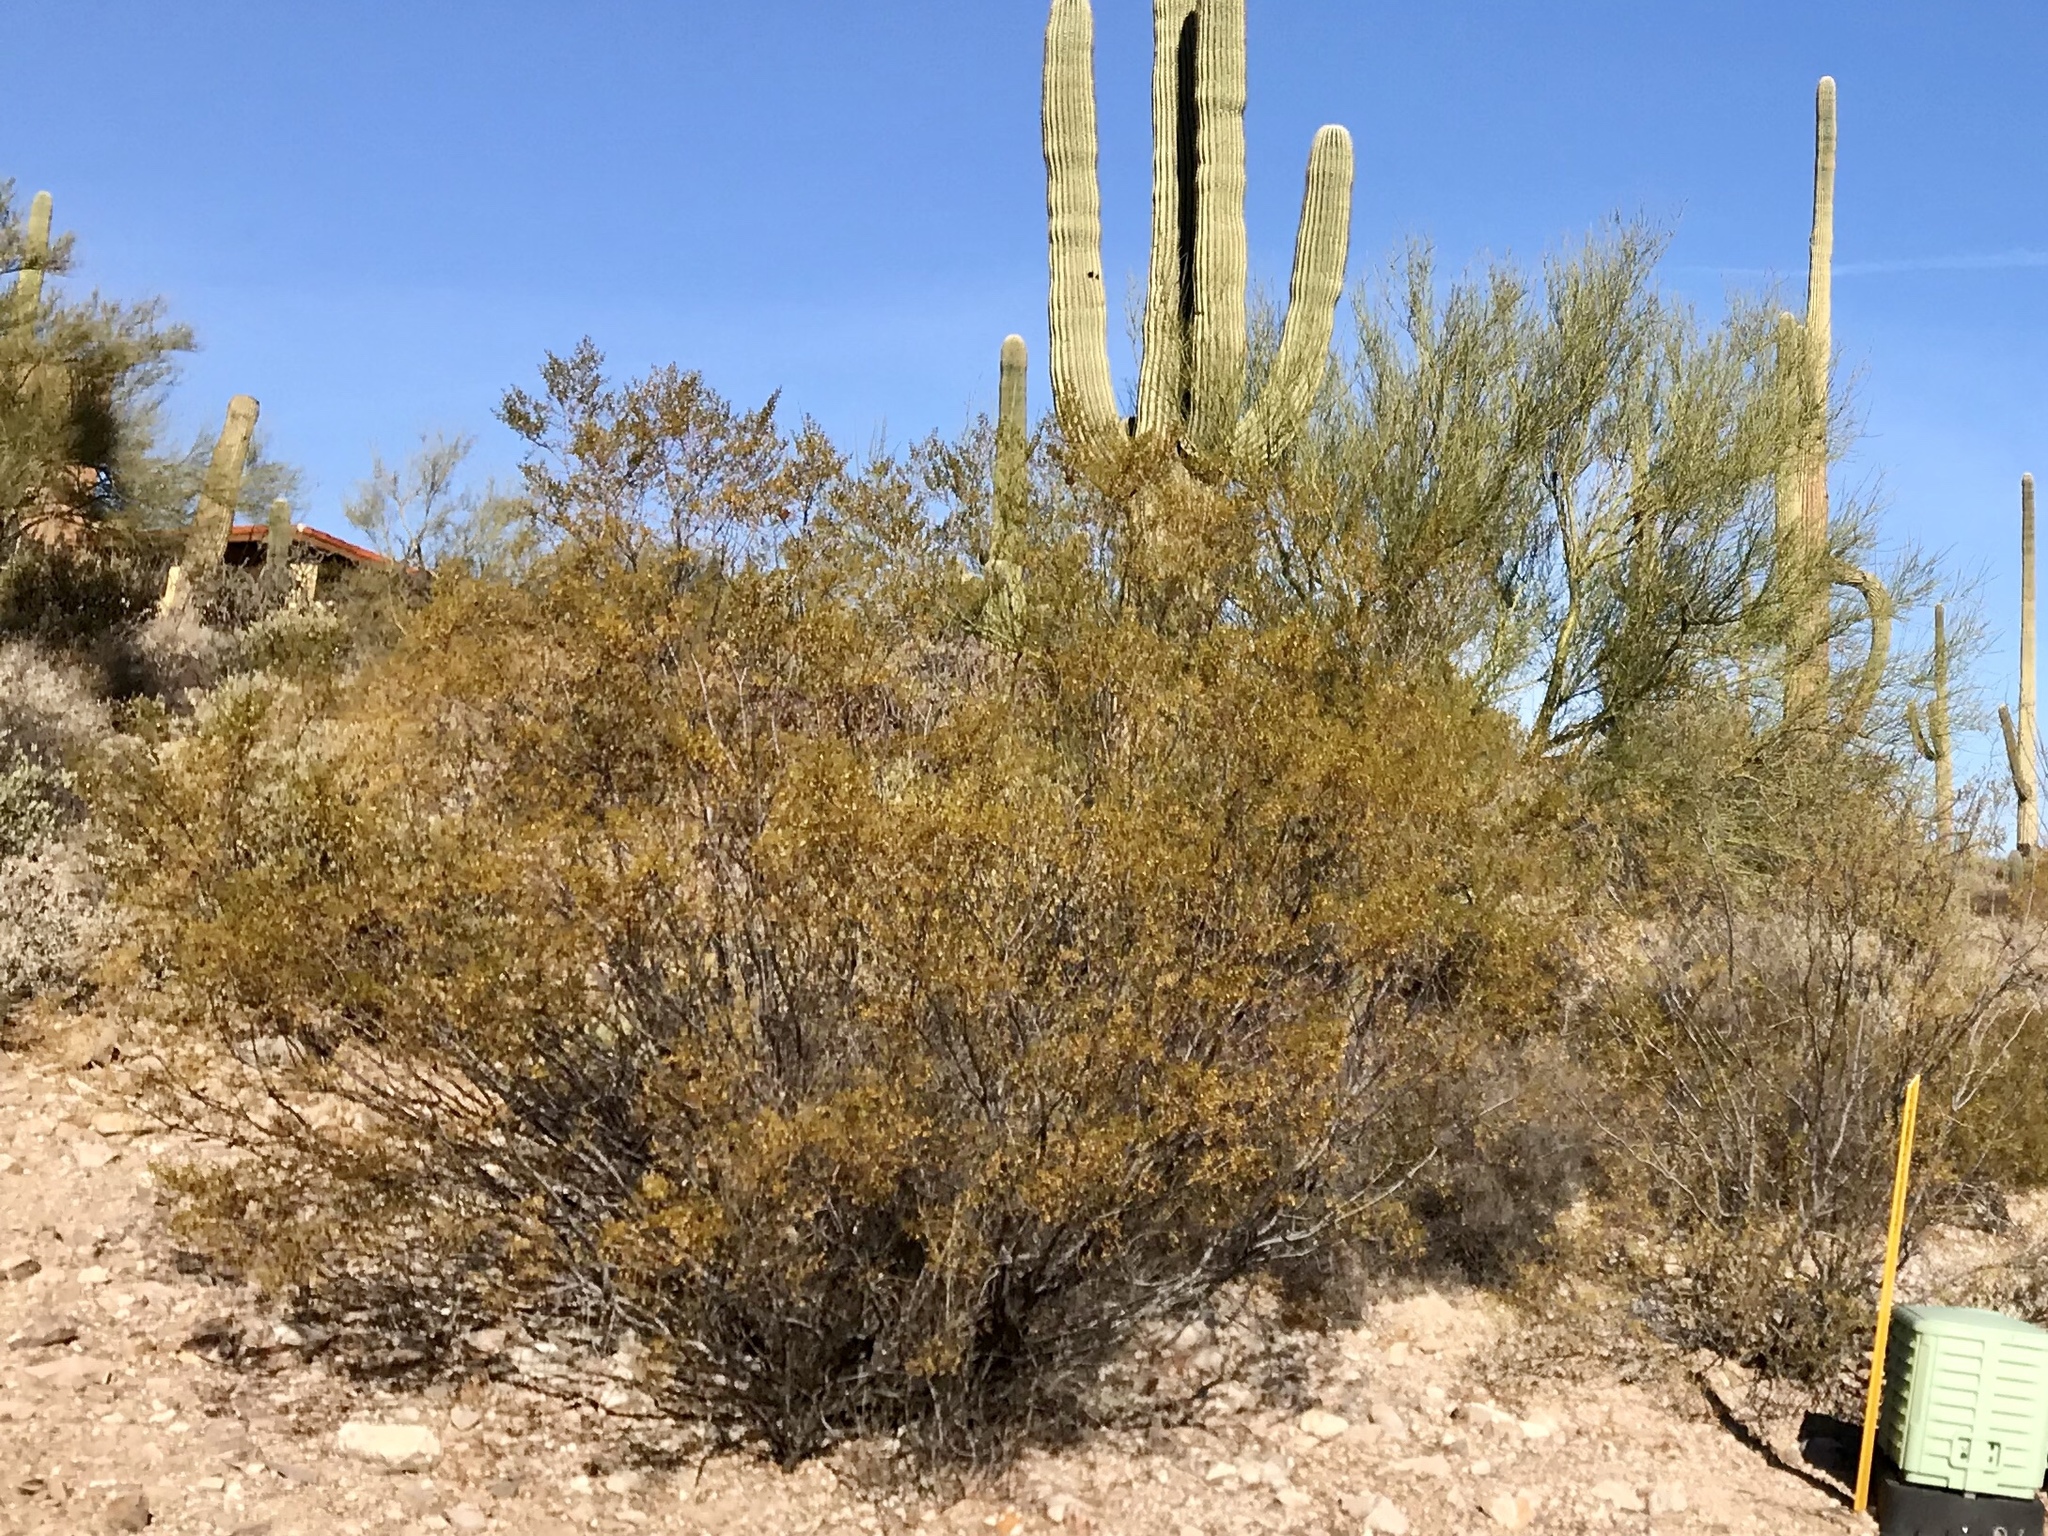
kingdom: Plantae
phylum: Tracheophyta
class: Magnoliopsida
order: Zygophyllales
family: Zygophyllaceae
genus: Larrea
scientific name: Larrea tridentata
